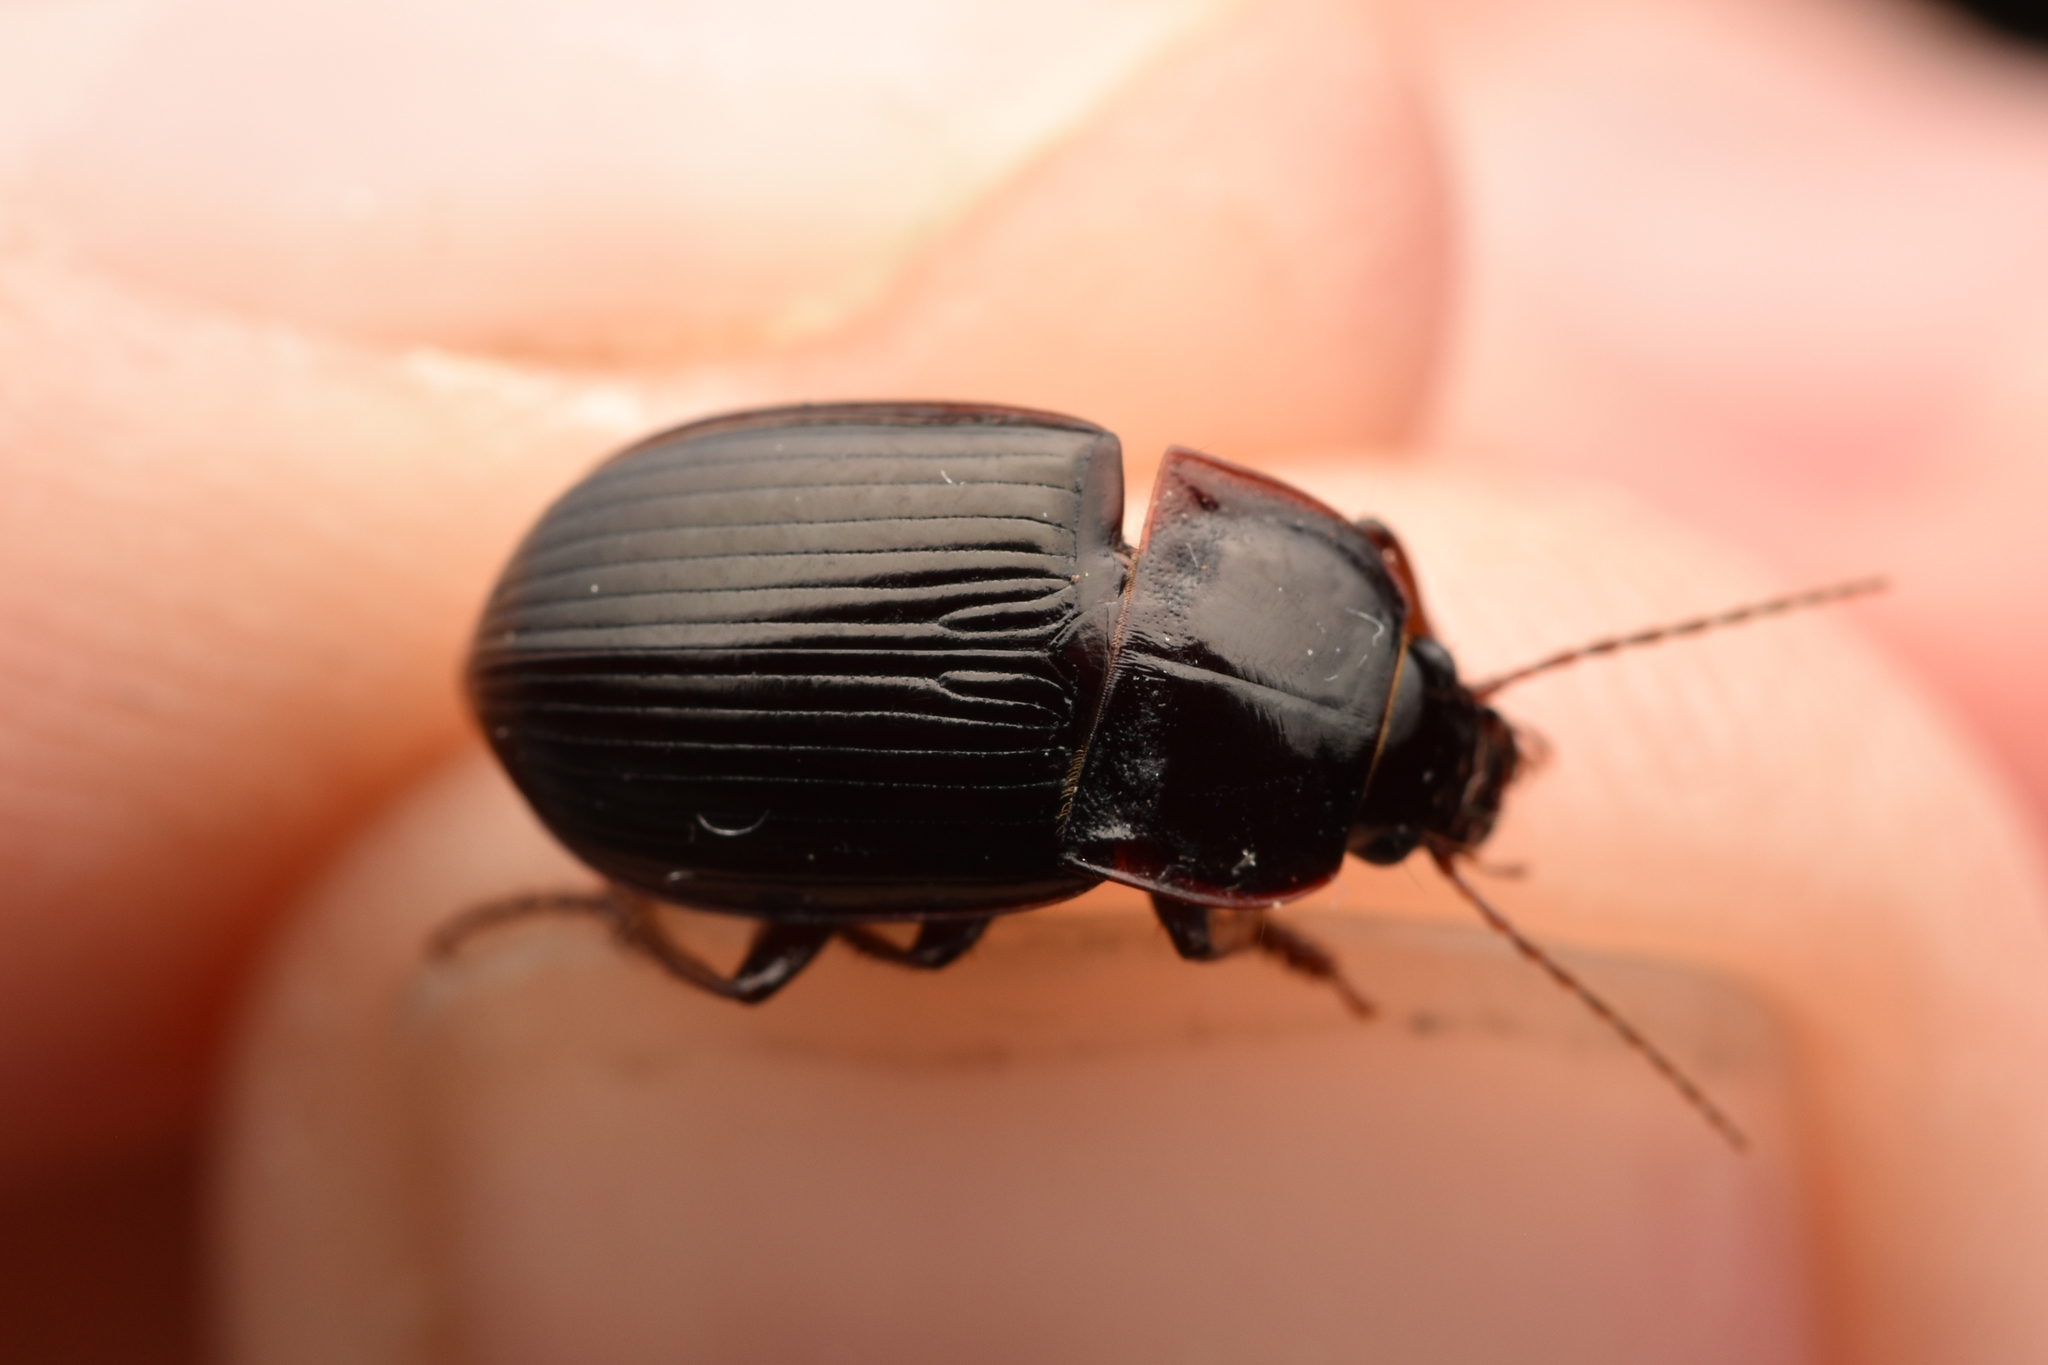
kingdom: Animalia
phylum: Arthropoda
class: Insecta
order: Coleoptera
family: Carabidae
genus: Amara
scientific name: Amara obesa
